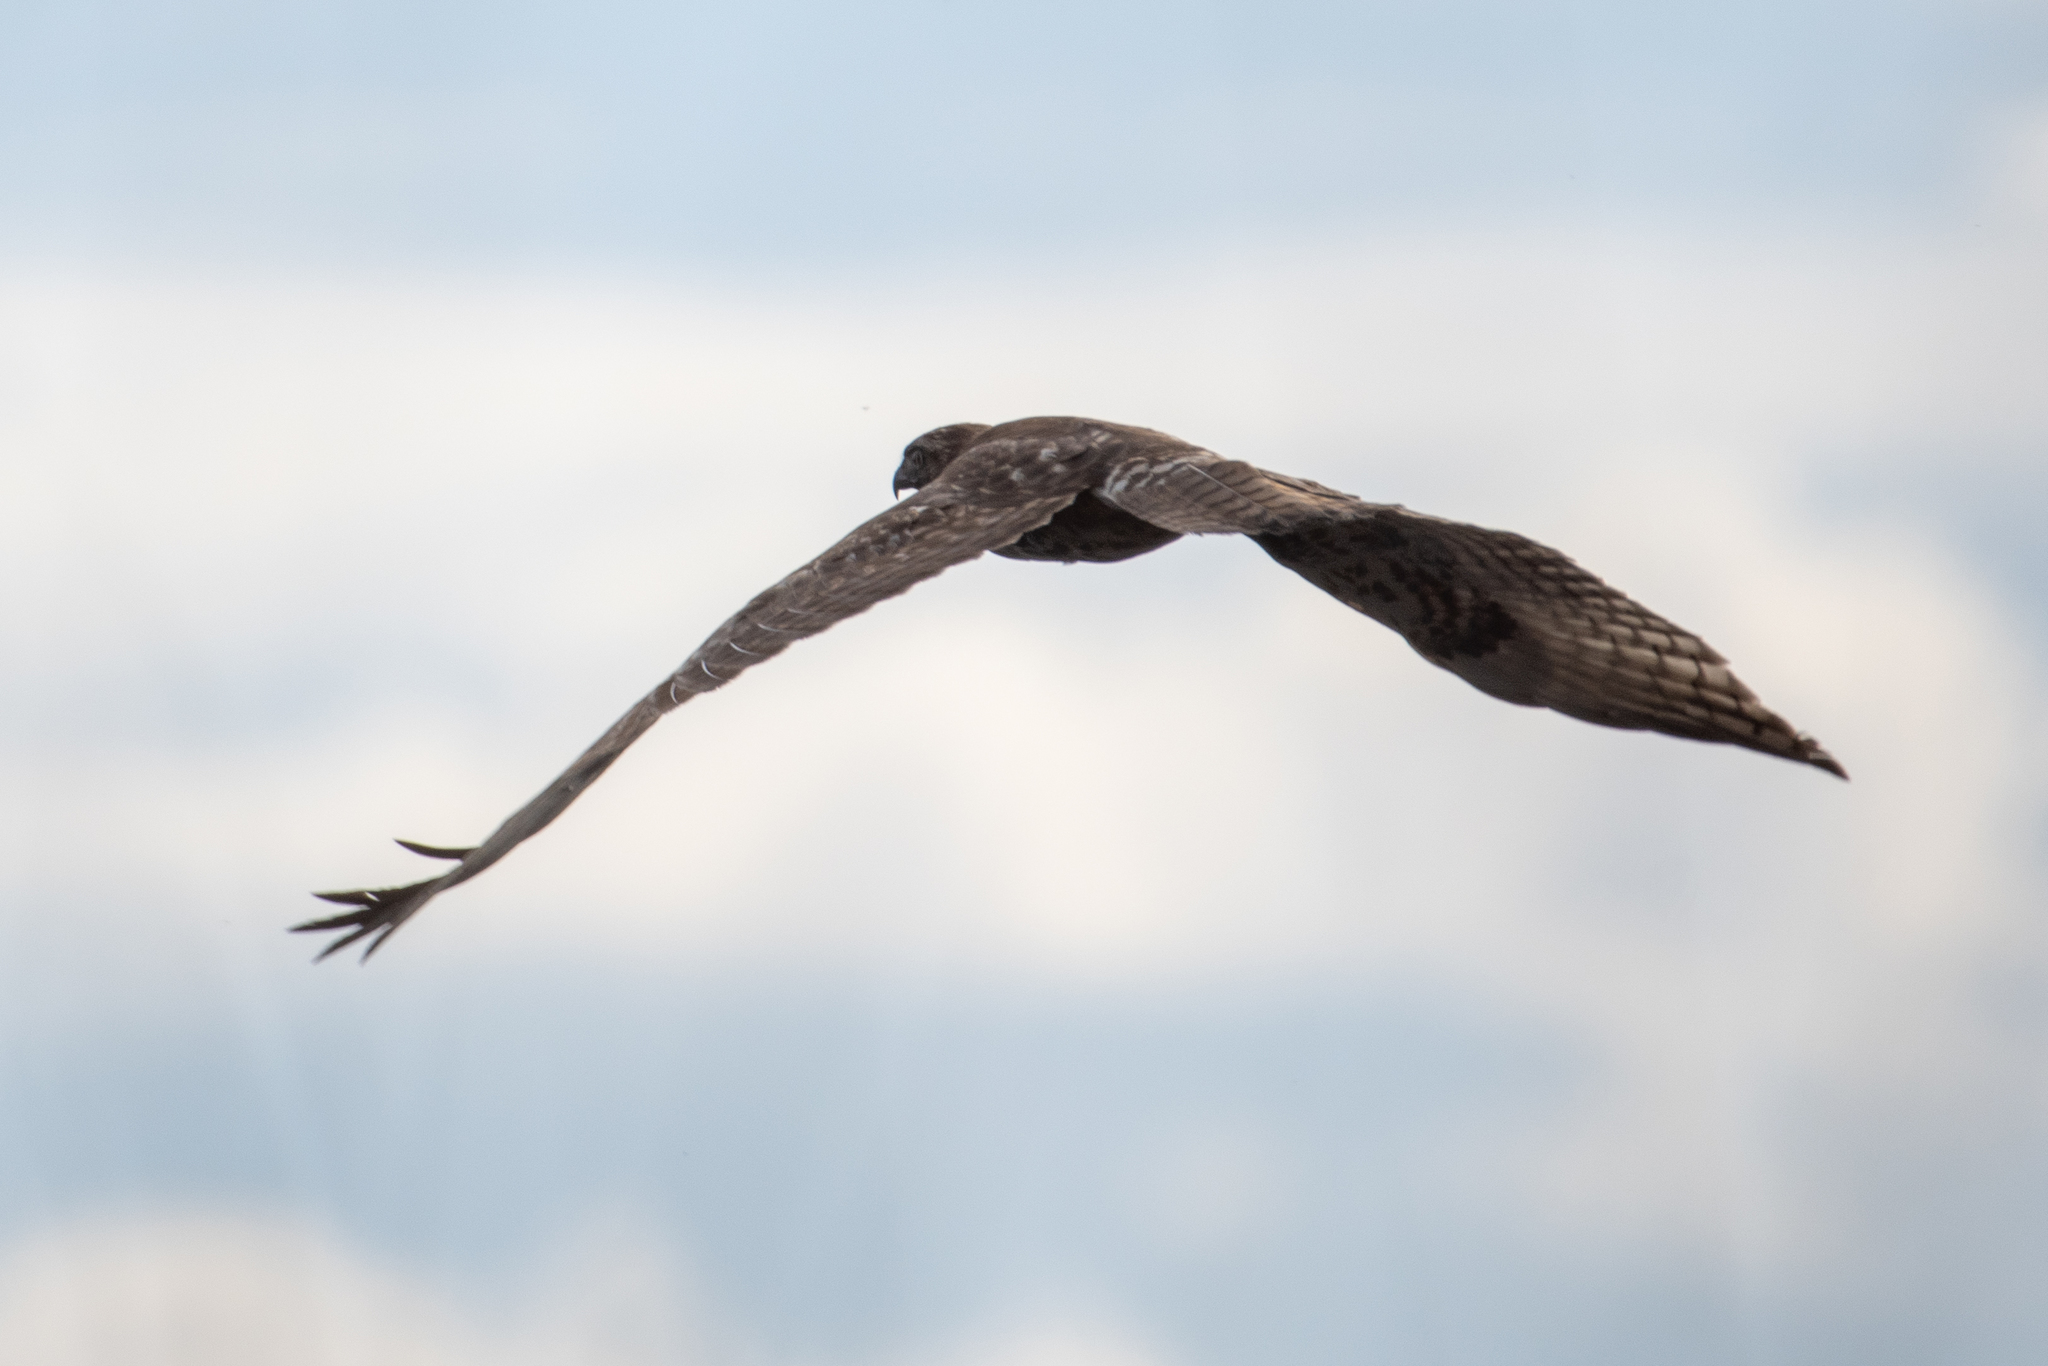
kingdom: Animalia
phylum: Chordata
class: Aves
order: Accipitriformes
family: Accipitridae
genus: Buteo
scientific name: Buteo jamaicensis
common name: Red-tailed hawk
